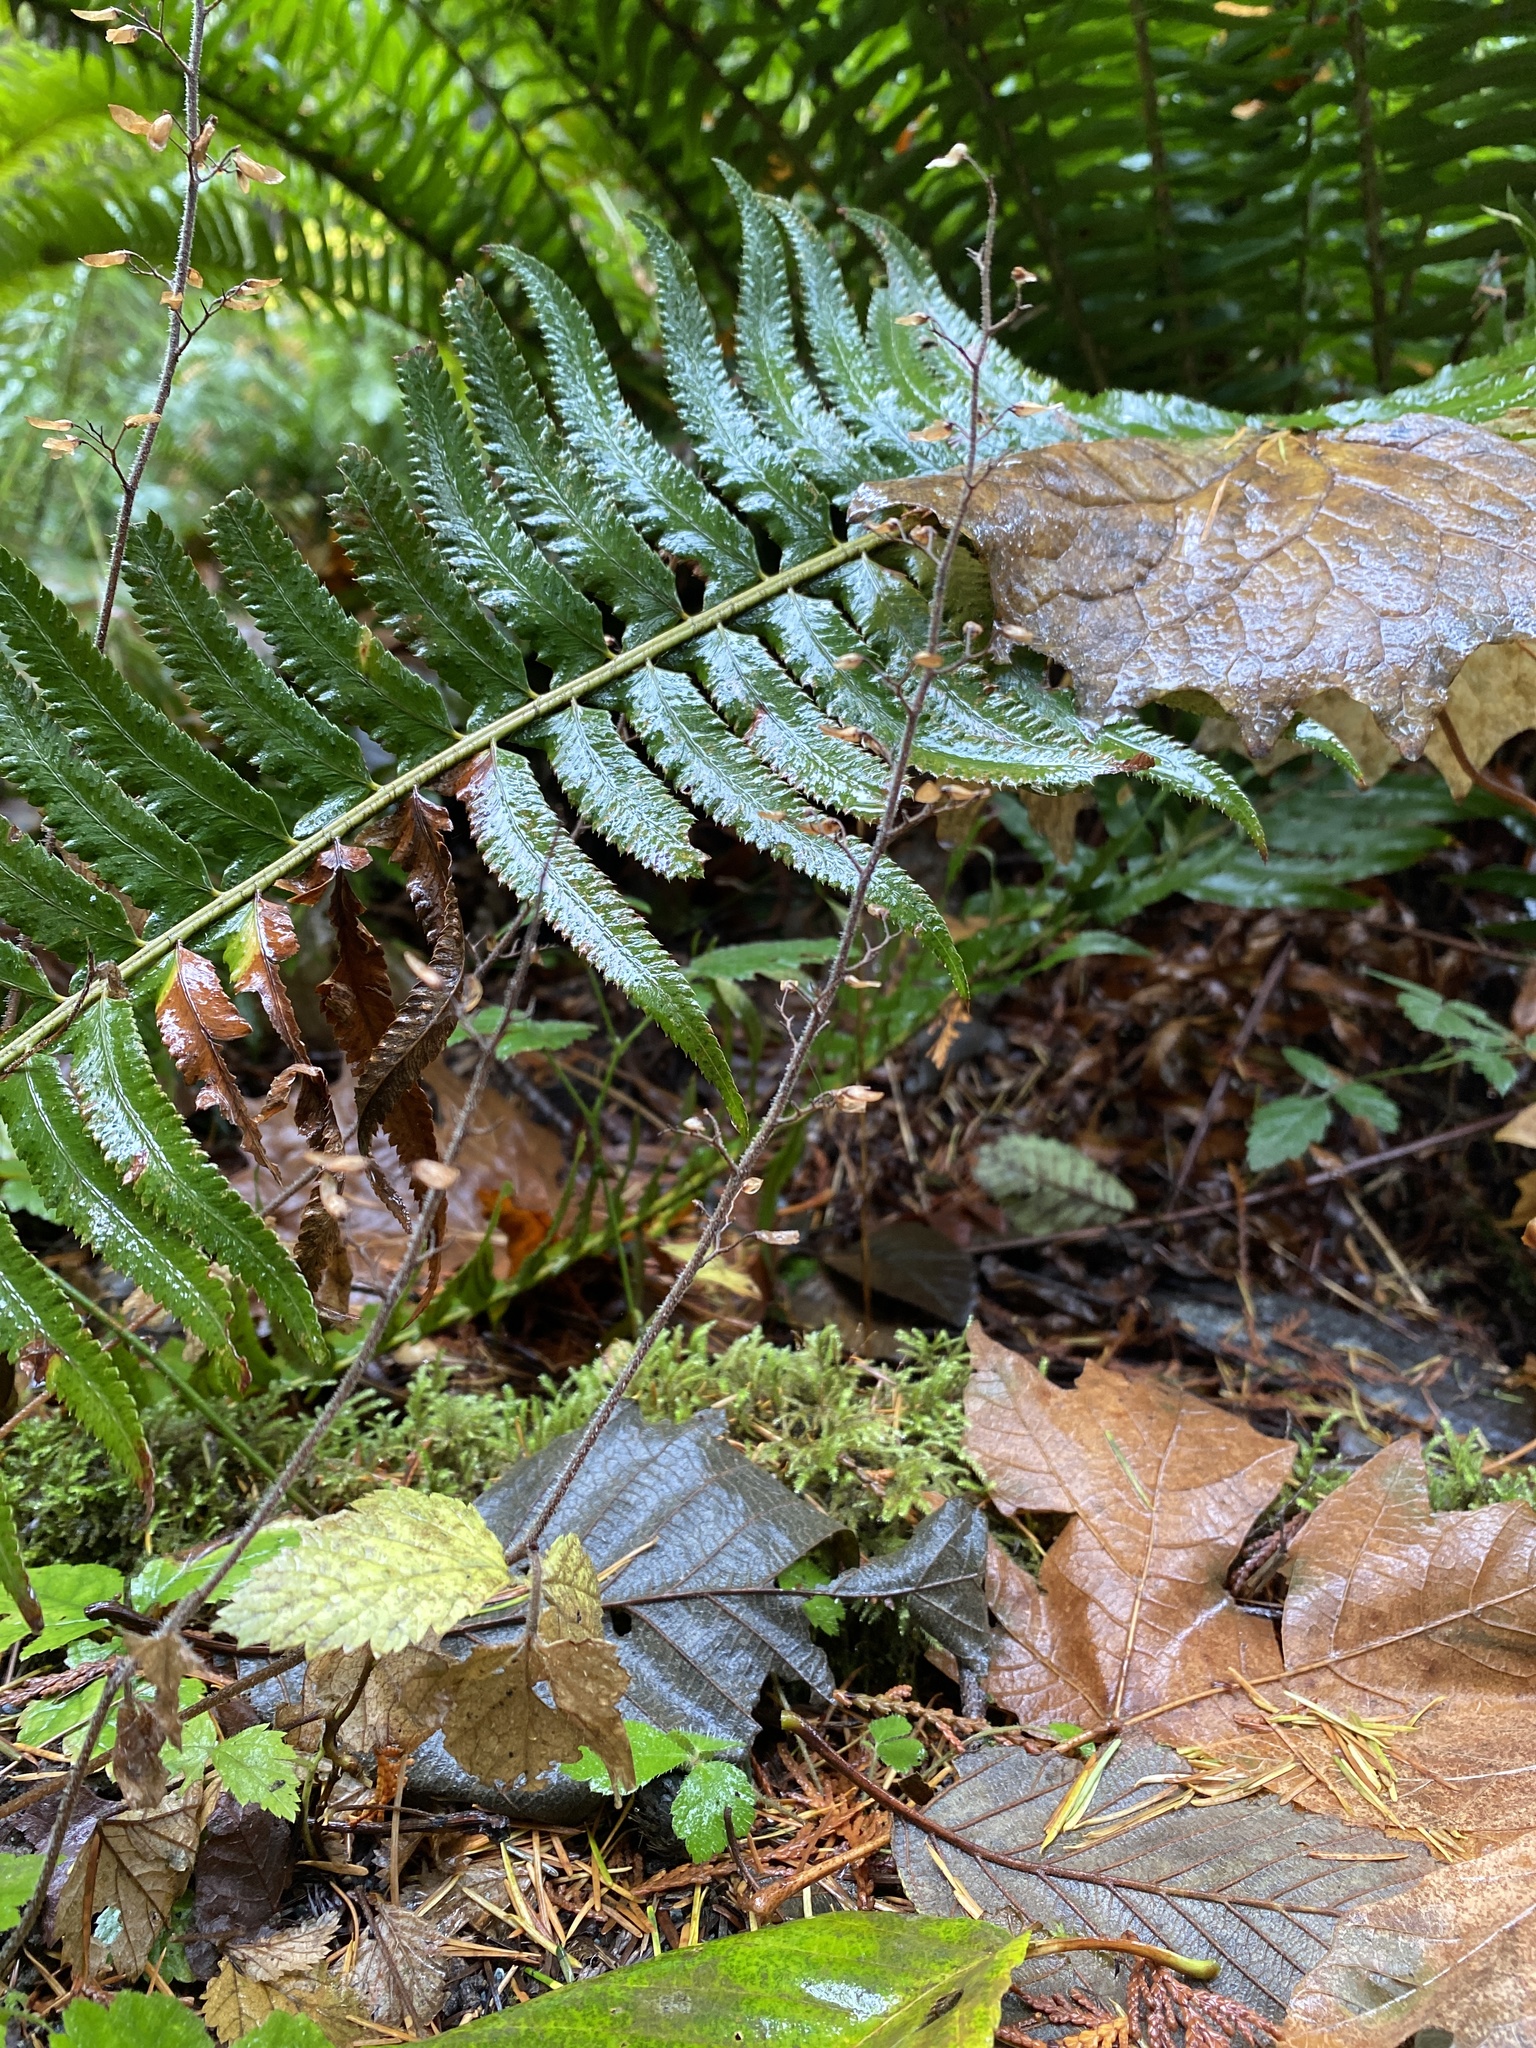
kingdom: Plantae
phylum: Tracheophyta
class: Polypodiopsida
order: Polypodiales
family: Dryopteridaceae
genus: Polystichum
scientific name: Polystichum munitum
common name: Western sword-fern
